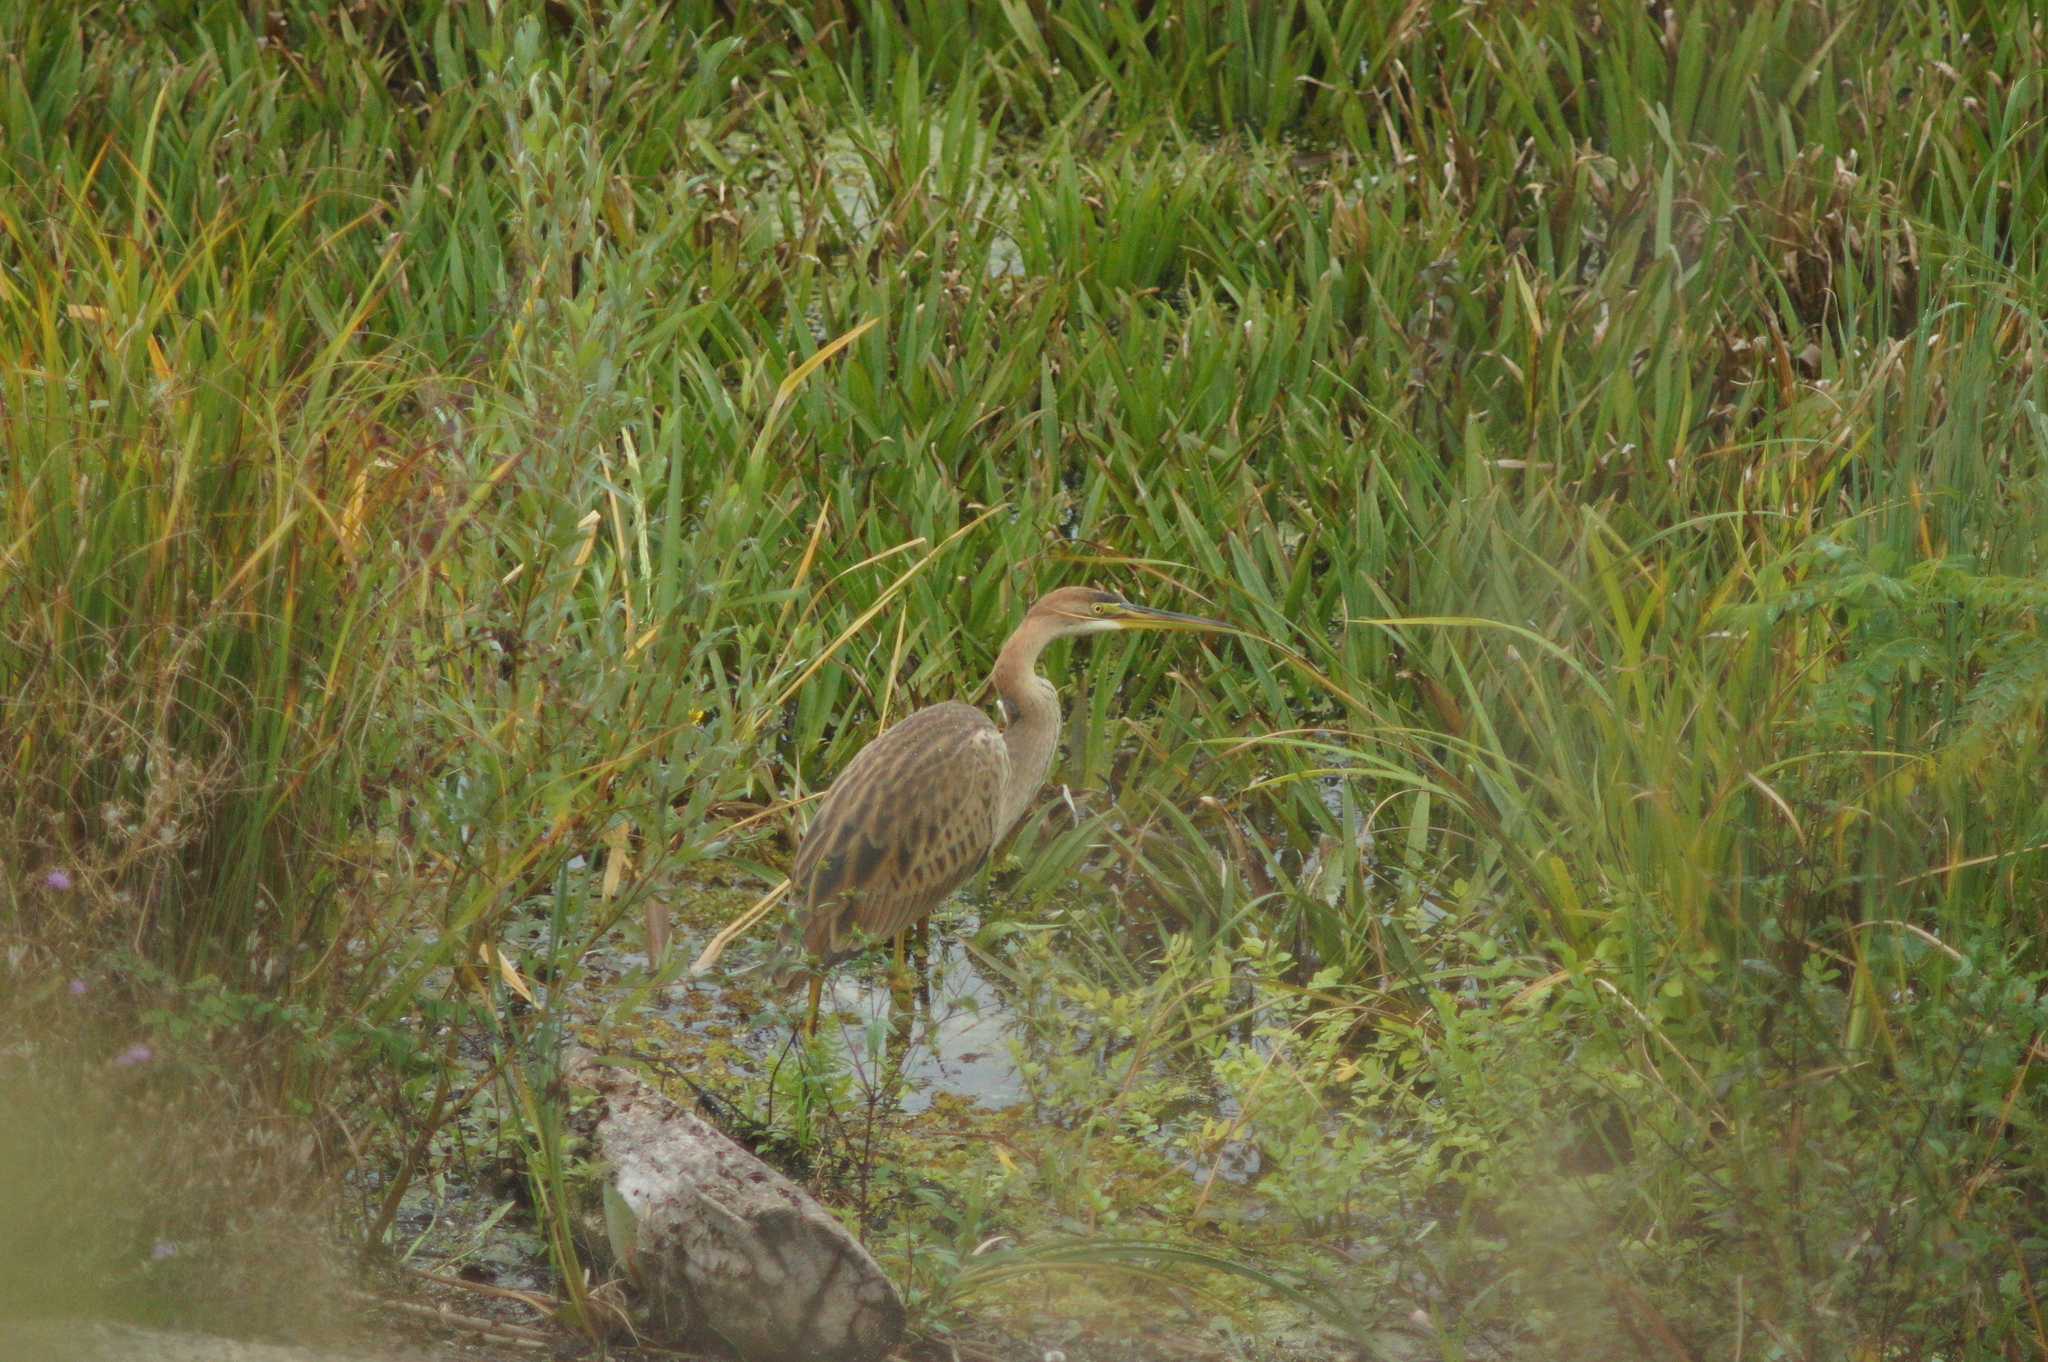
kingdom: Animalia
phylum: Chordata
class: Aves
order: Pelecaniformes
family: Ardeidae
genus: Ardea
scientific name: Ardea purpurea
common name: Purple heron
